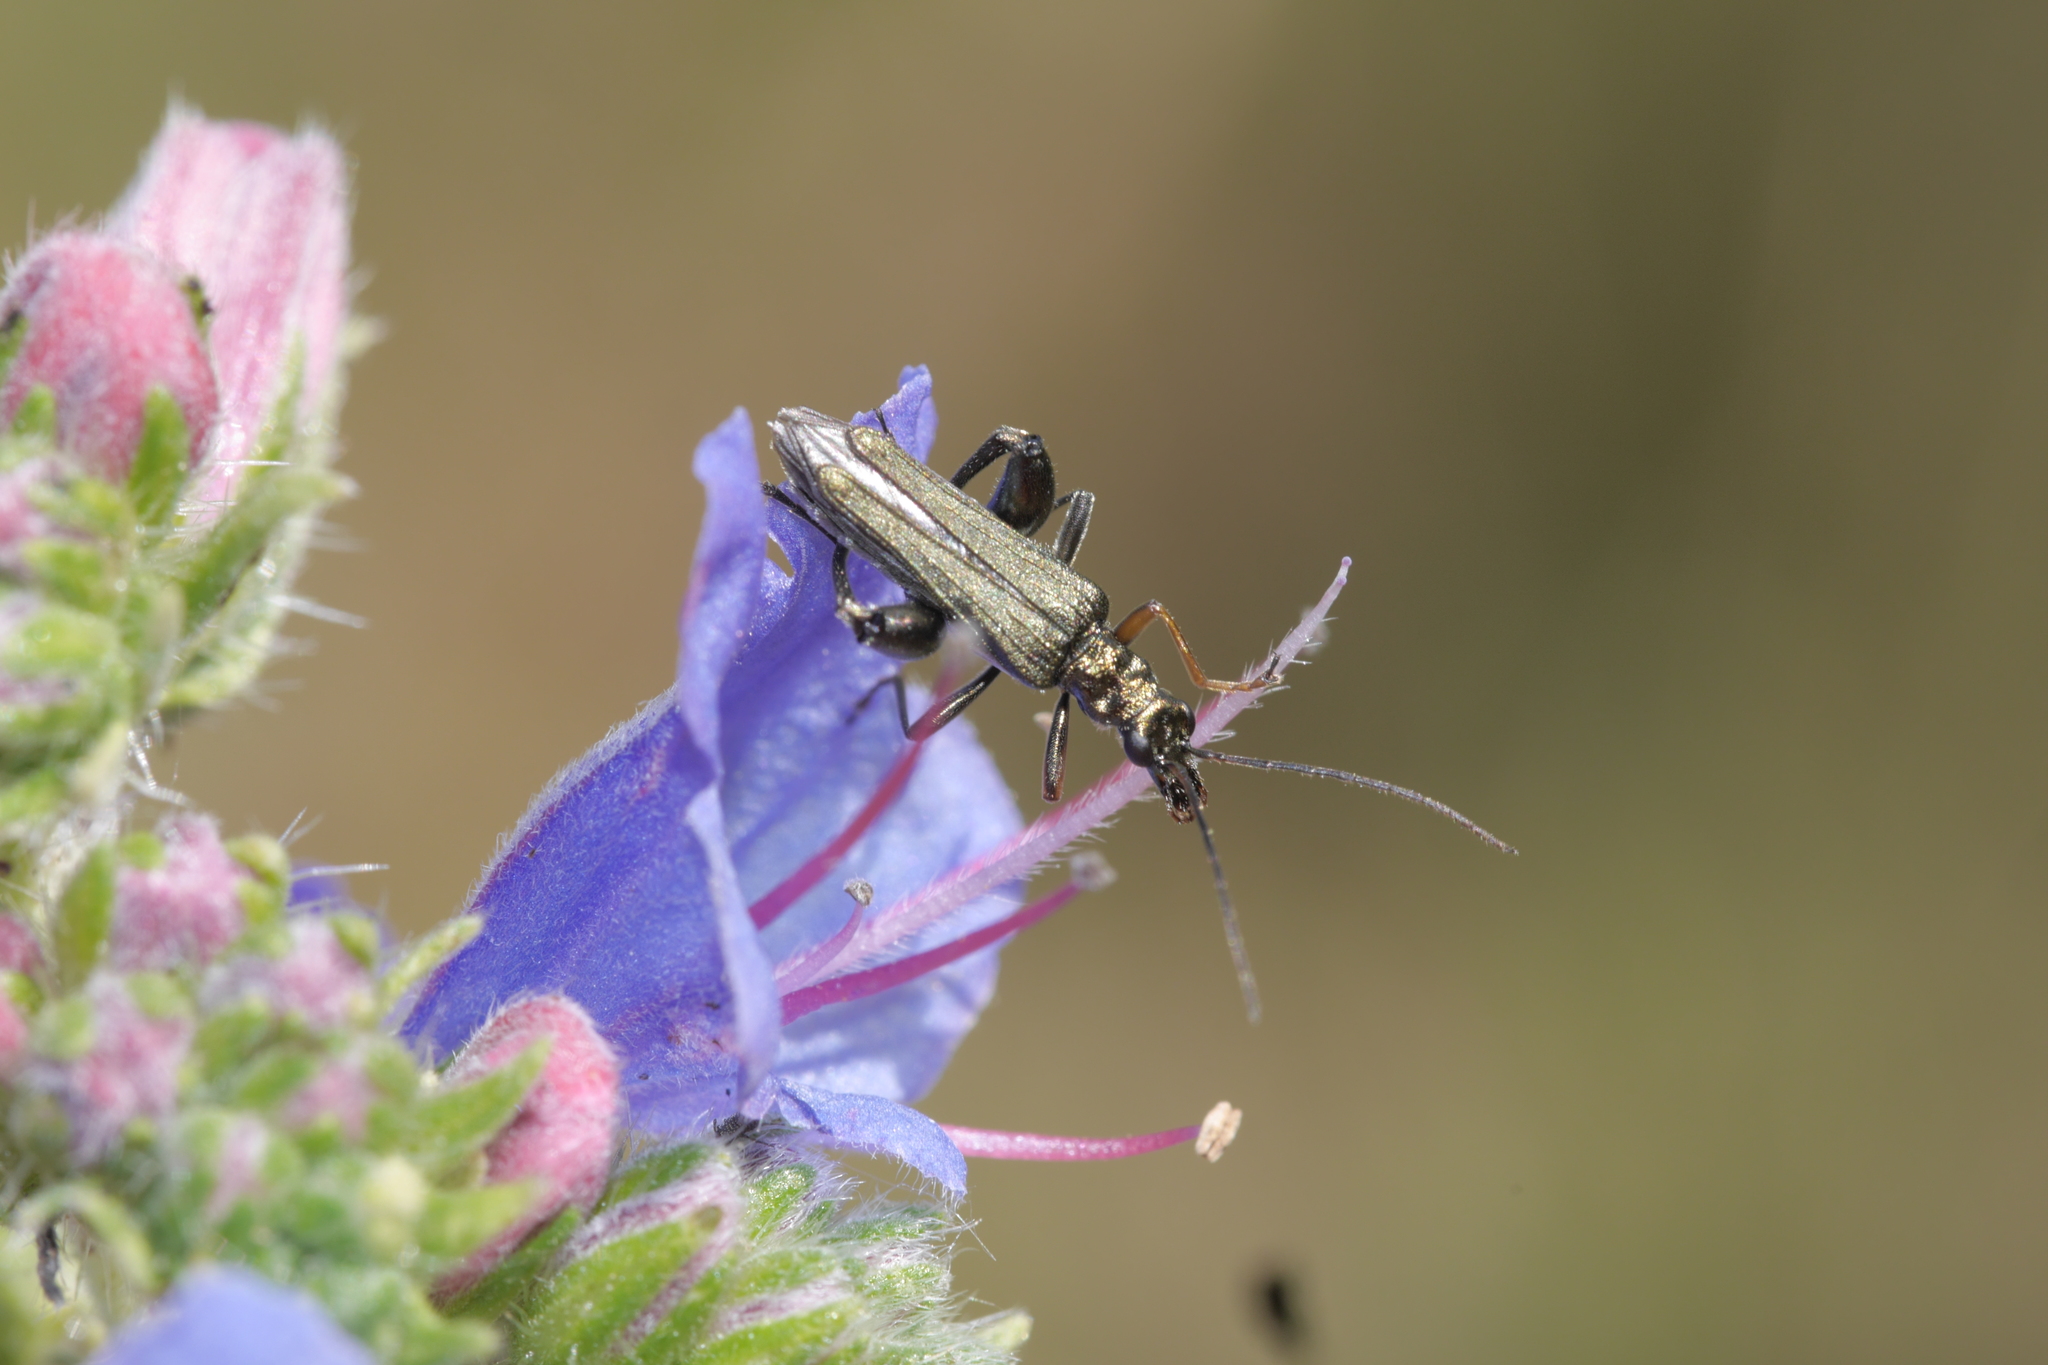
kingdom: Animalia
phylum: Arthropoda
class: Insecta
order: Coleoptera
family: Oedemeridae
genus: Oedemera
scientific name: Oedemera flavipes
